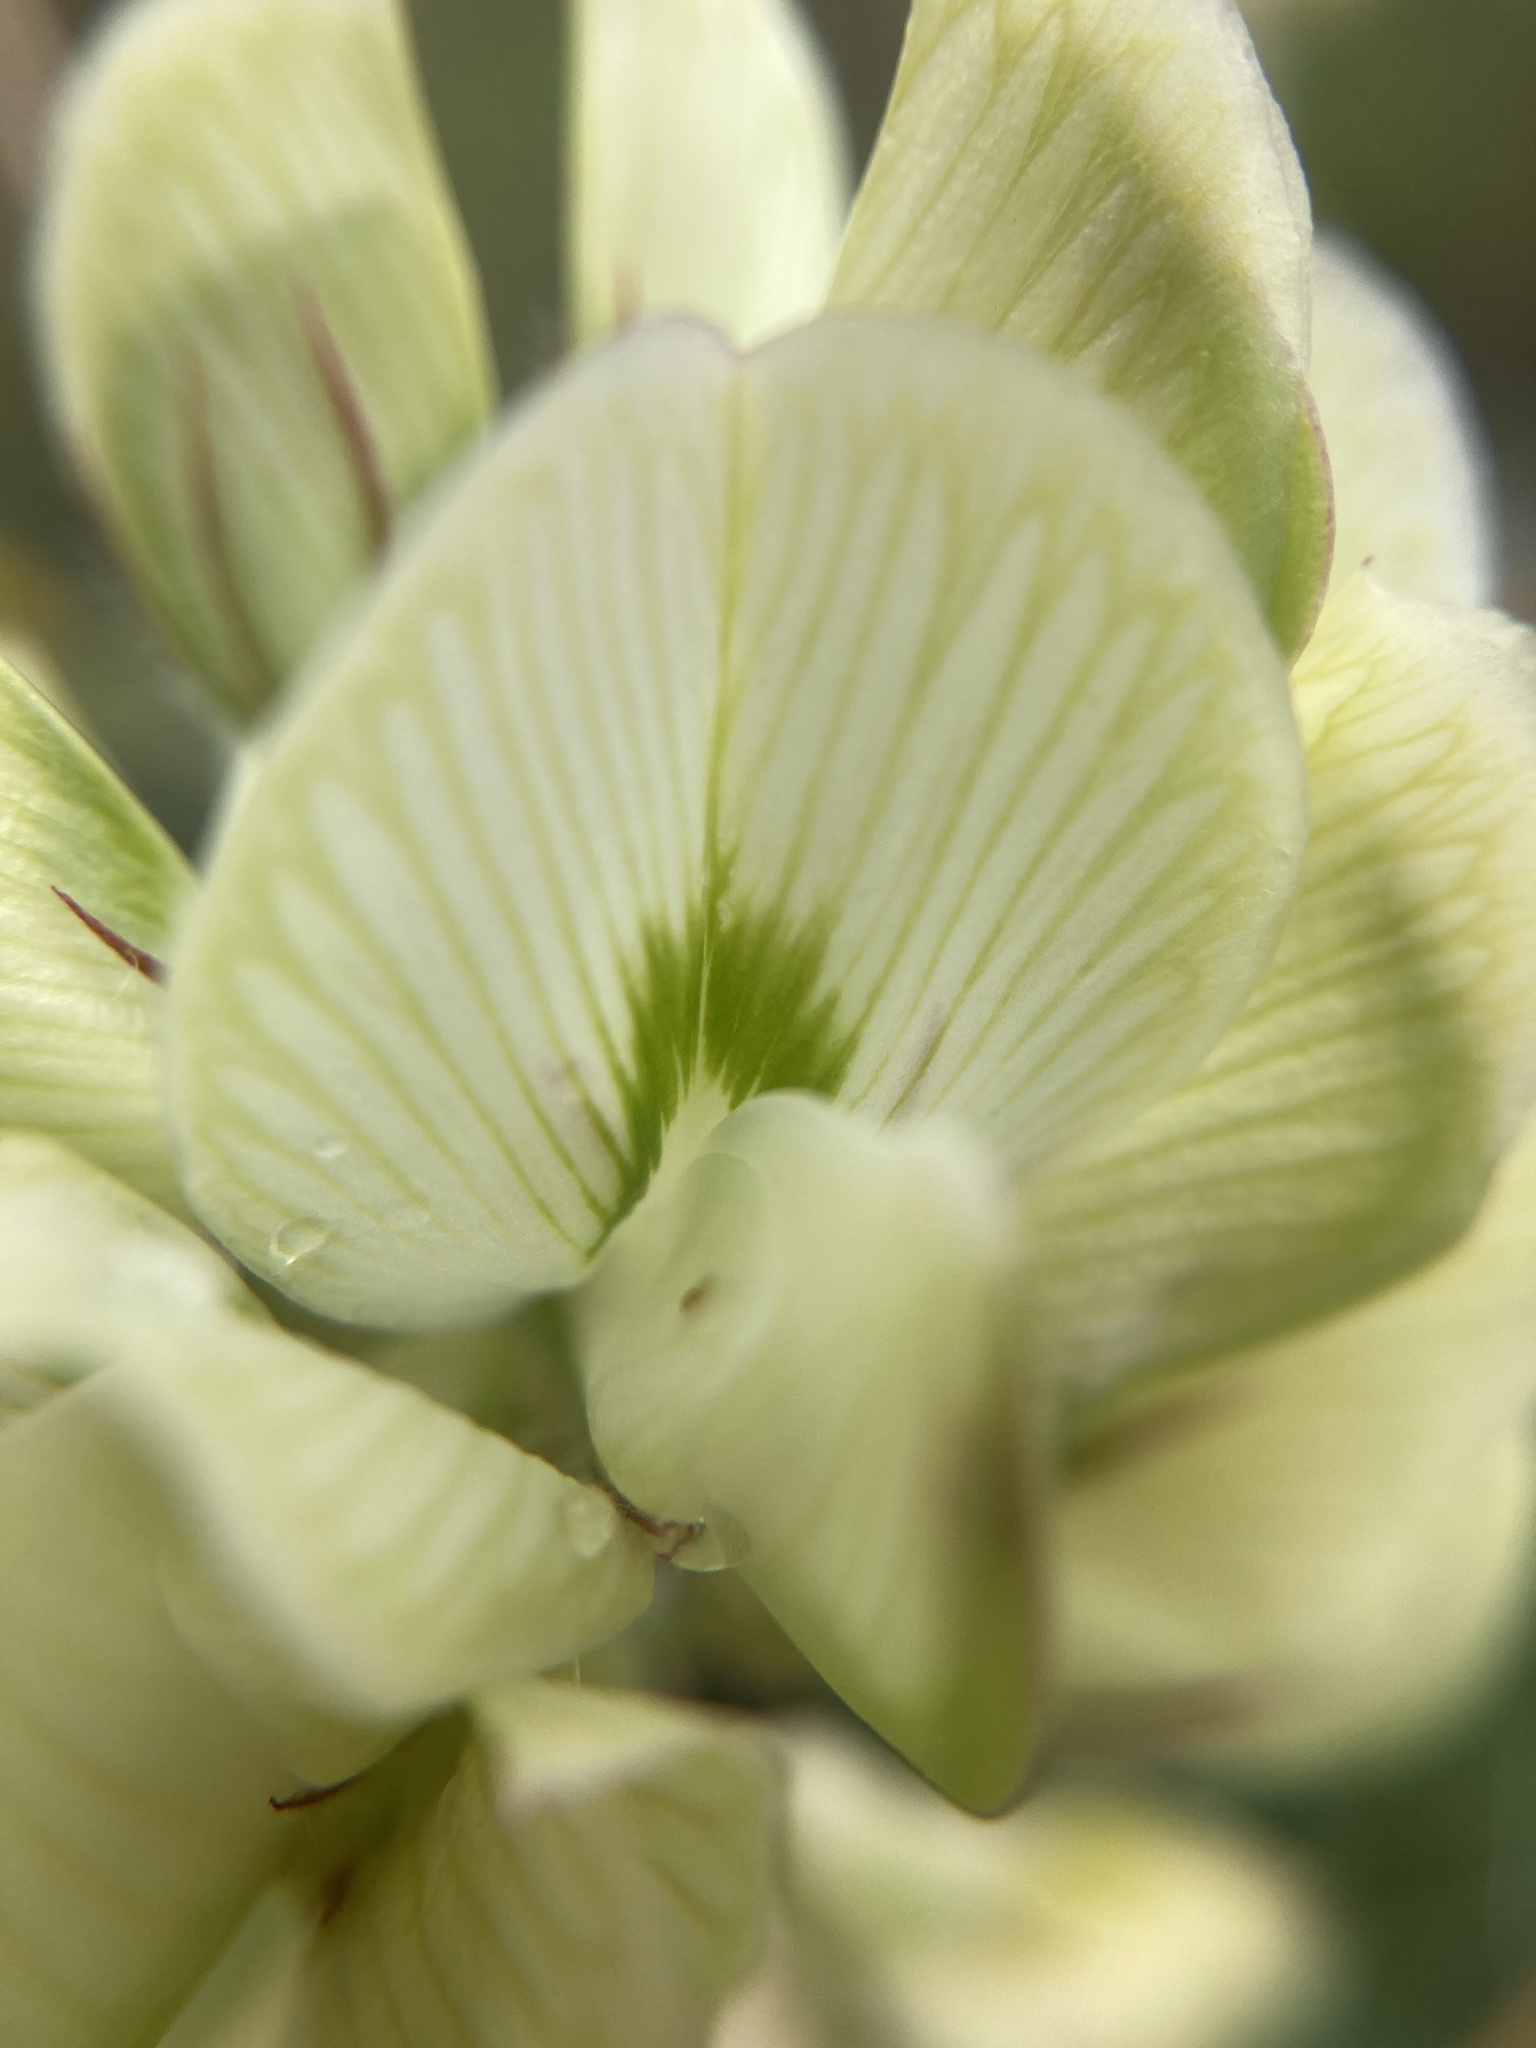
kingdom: Plantae
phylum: Tracheophyta
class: Magnoliopsida
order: Fabales
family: Fabaceae
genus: Hedysarum
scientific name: Hedysarum grandiflorum
